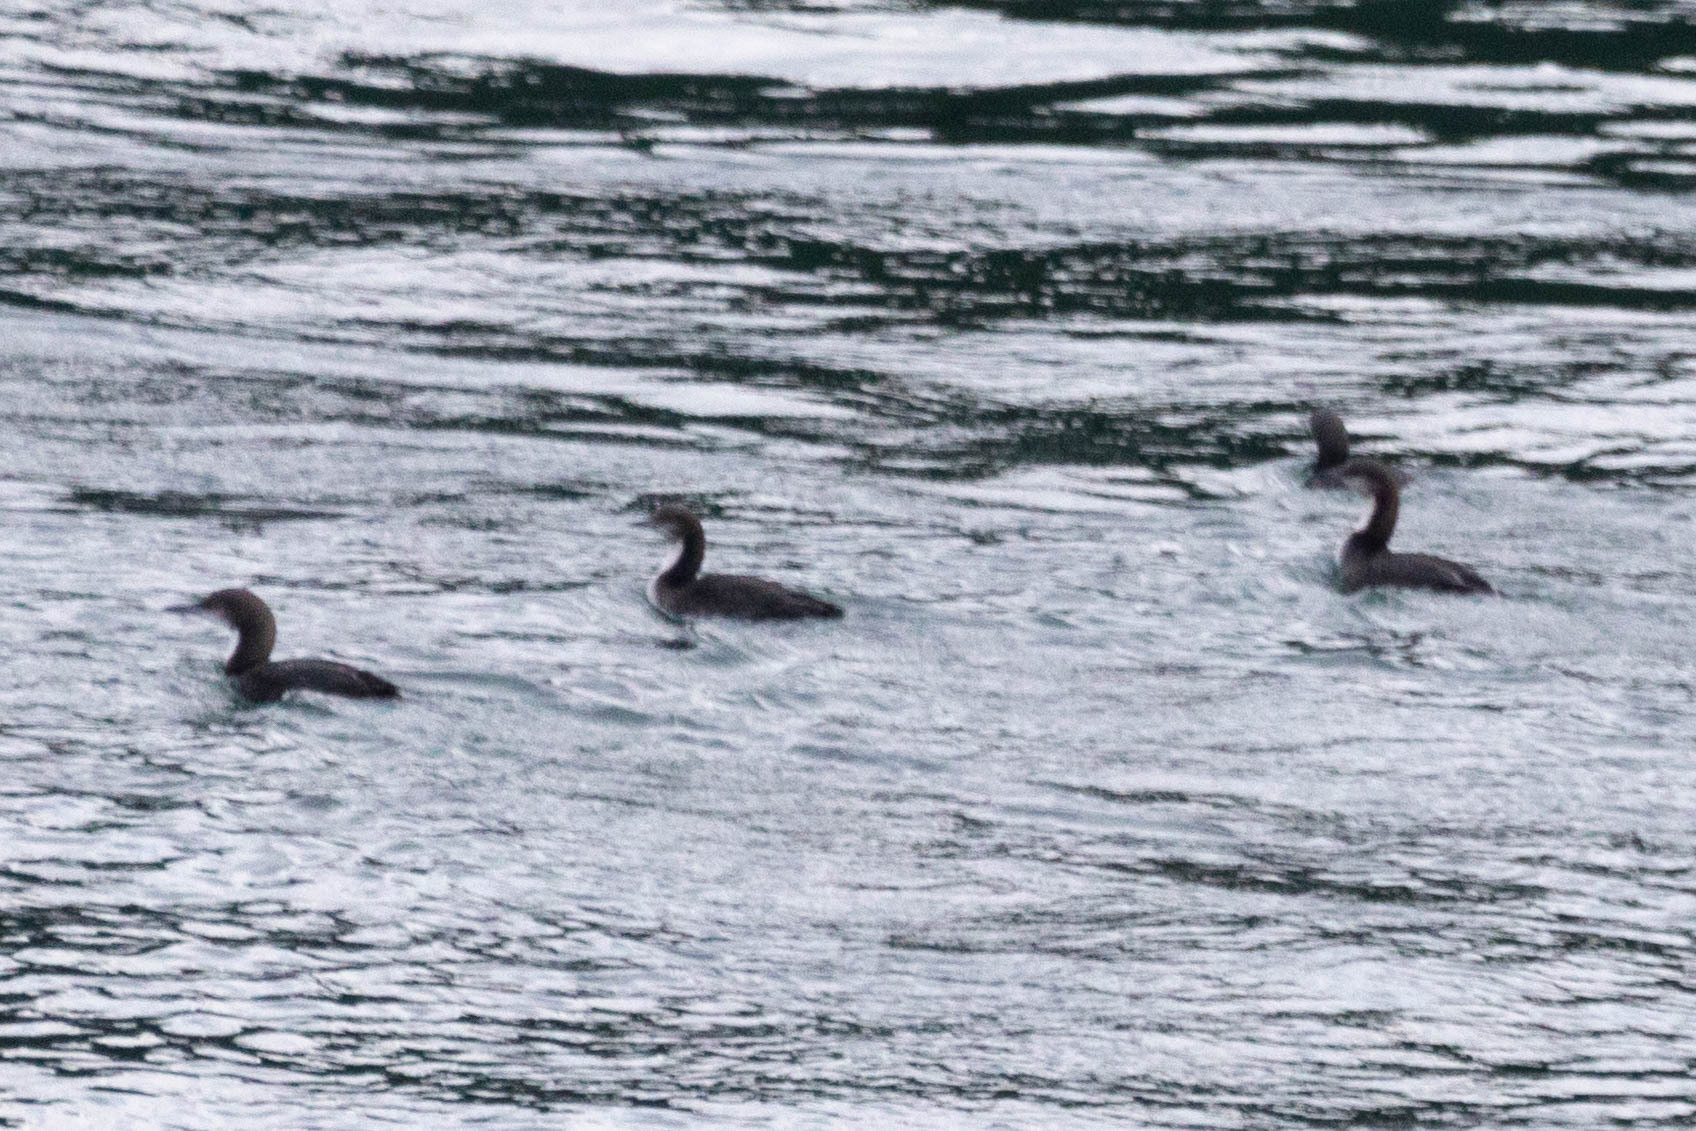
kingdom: Animalia
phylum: Chordata
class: Aves
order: Gaviiformes
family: Gaviidae
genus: Gavia
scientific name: Gavia pacifica
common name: Pacific loon
